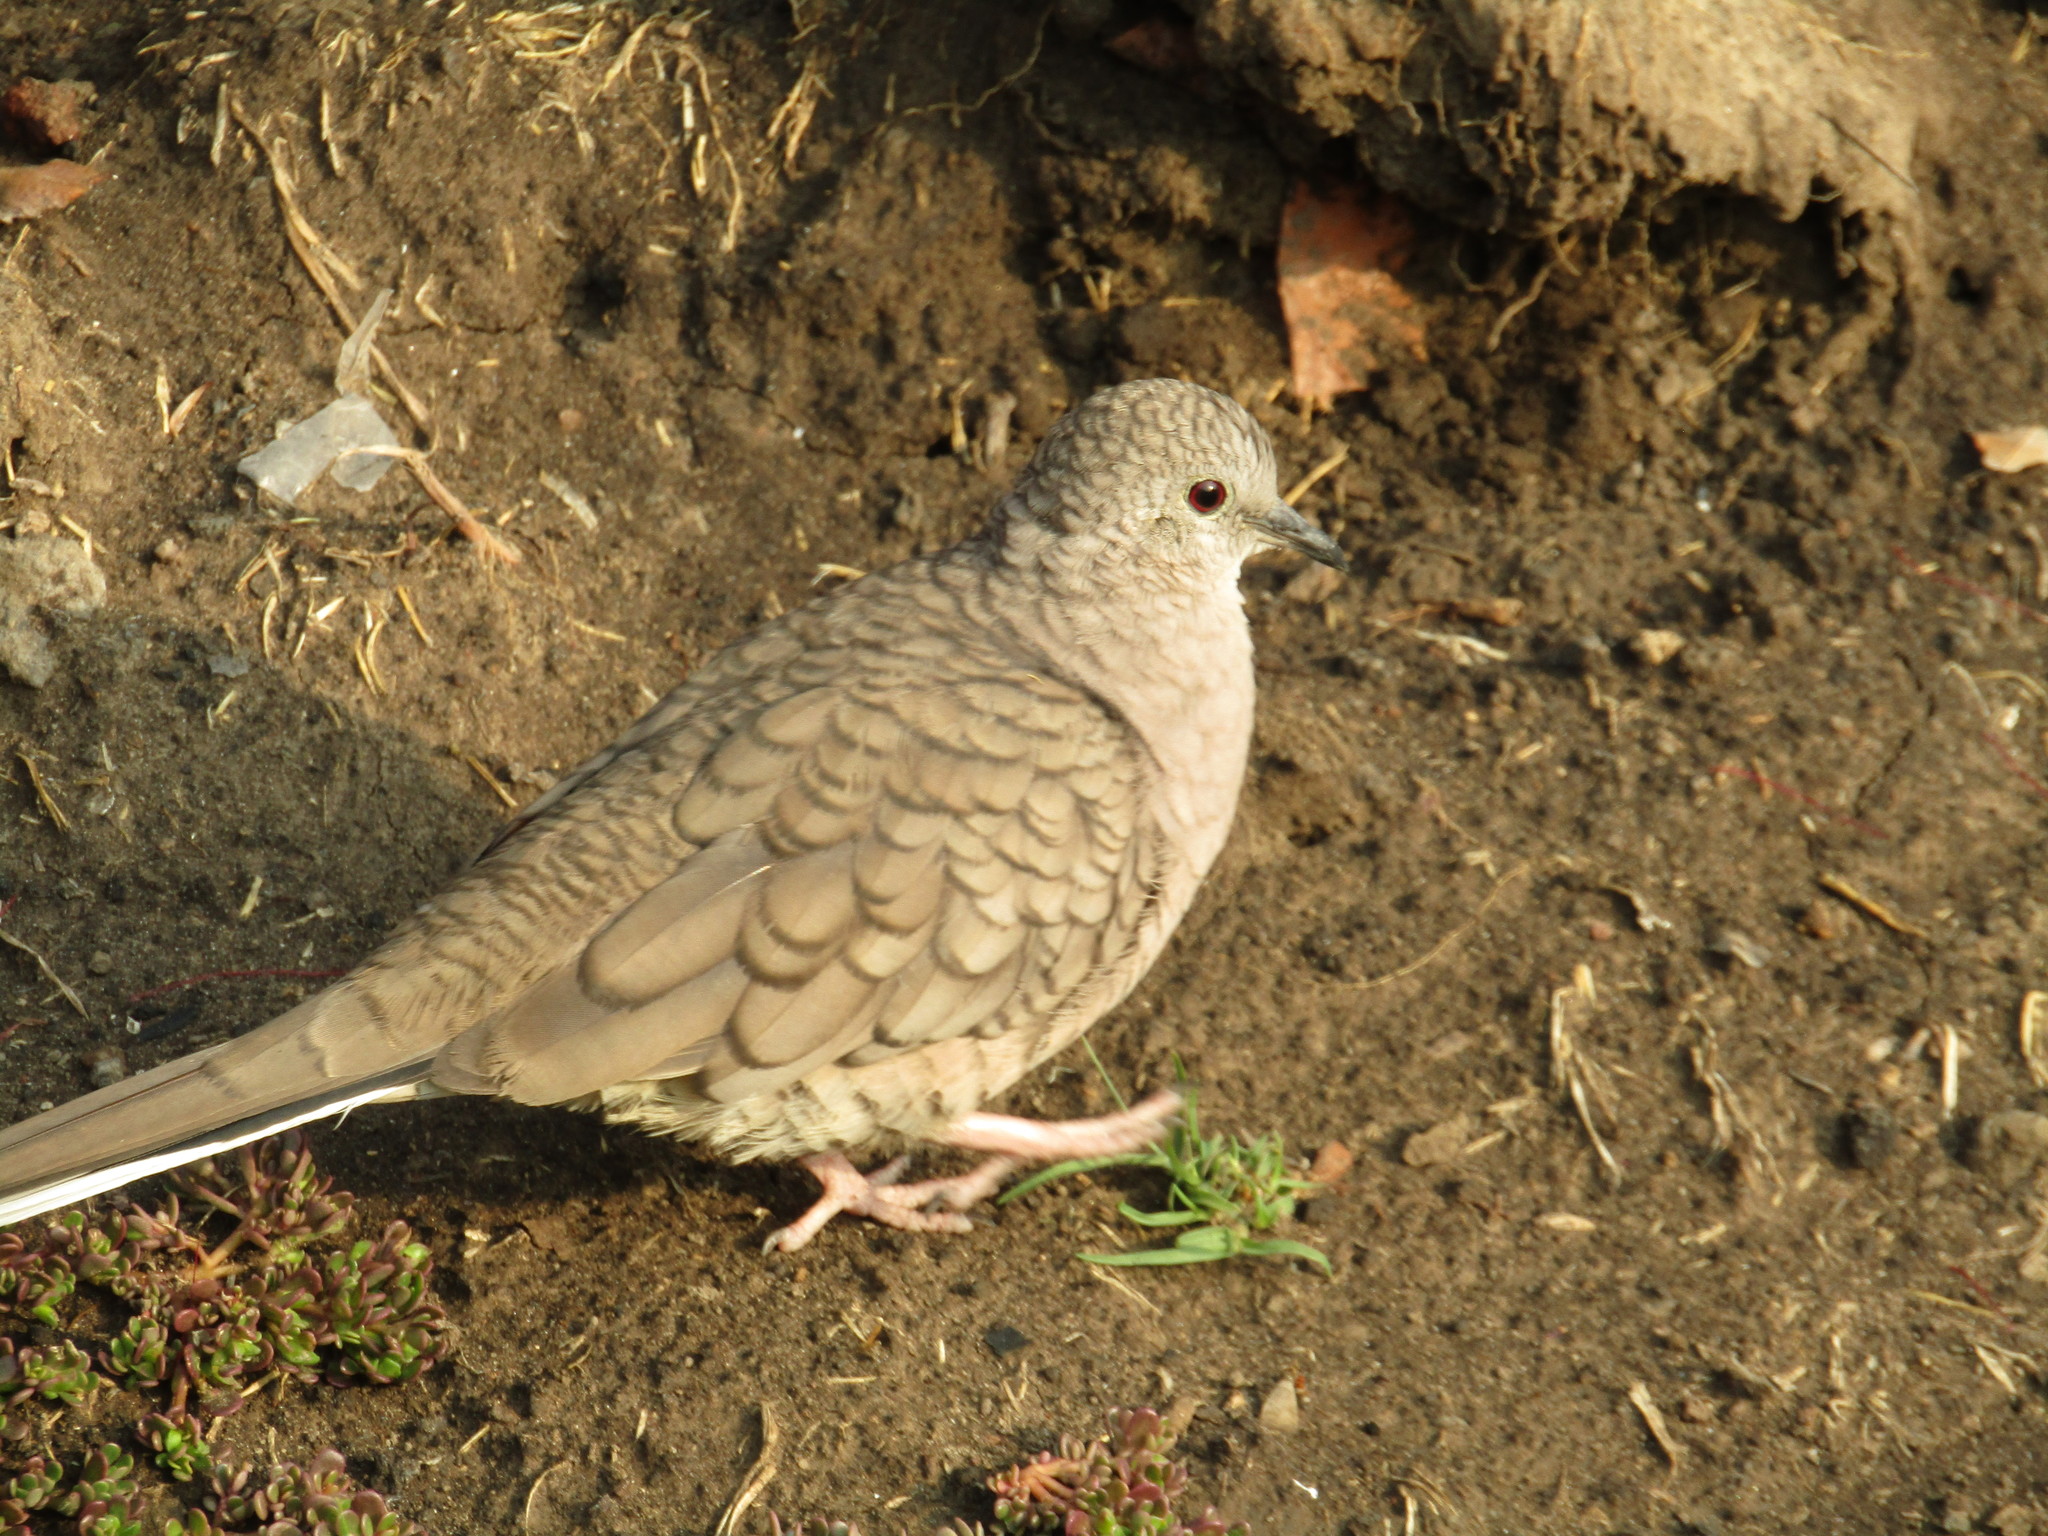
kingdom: Animalia
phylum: Chordata
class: Aves
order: Columbiformes
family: Columbidae
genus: Columbina
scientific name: Columbina inca
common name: Inca dove
